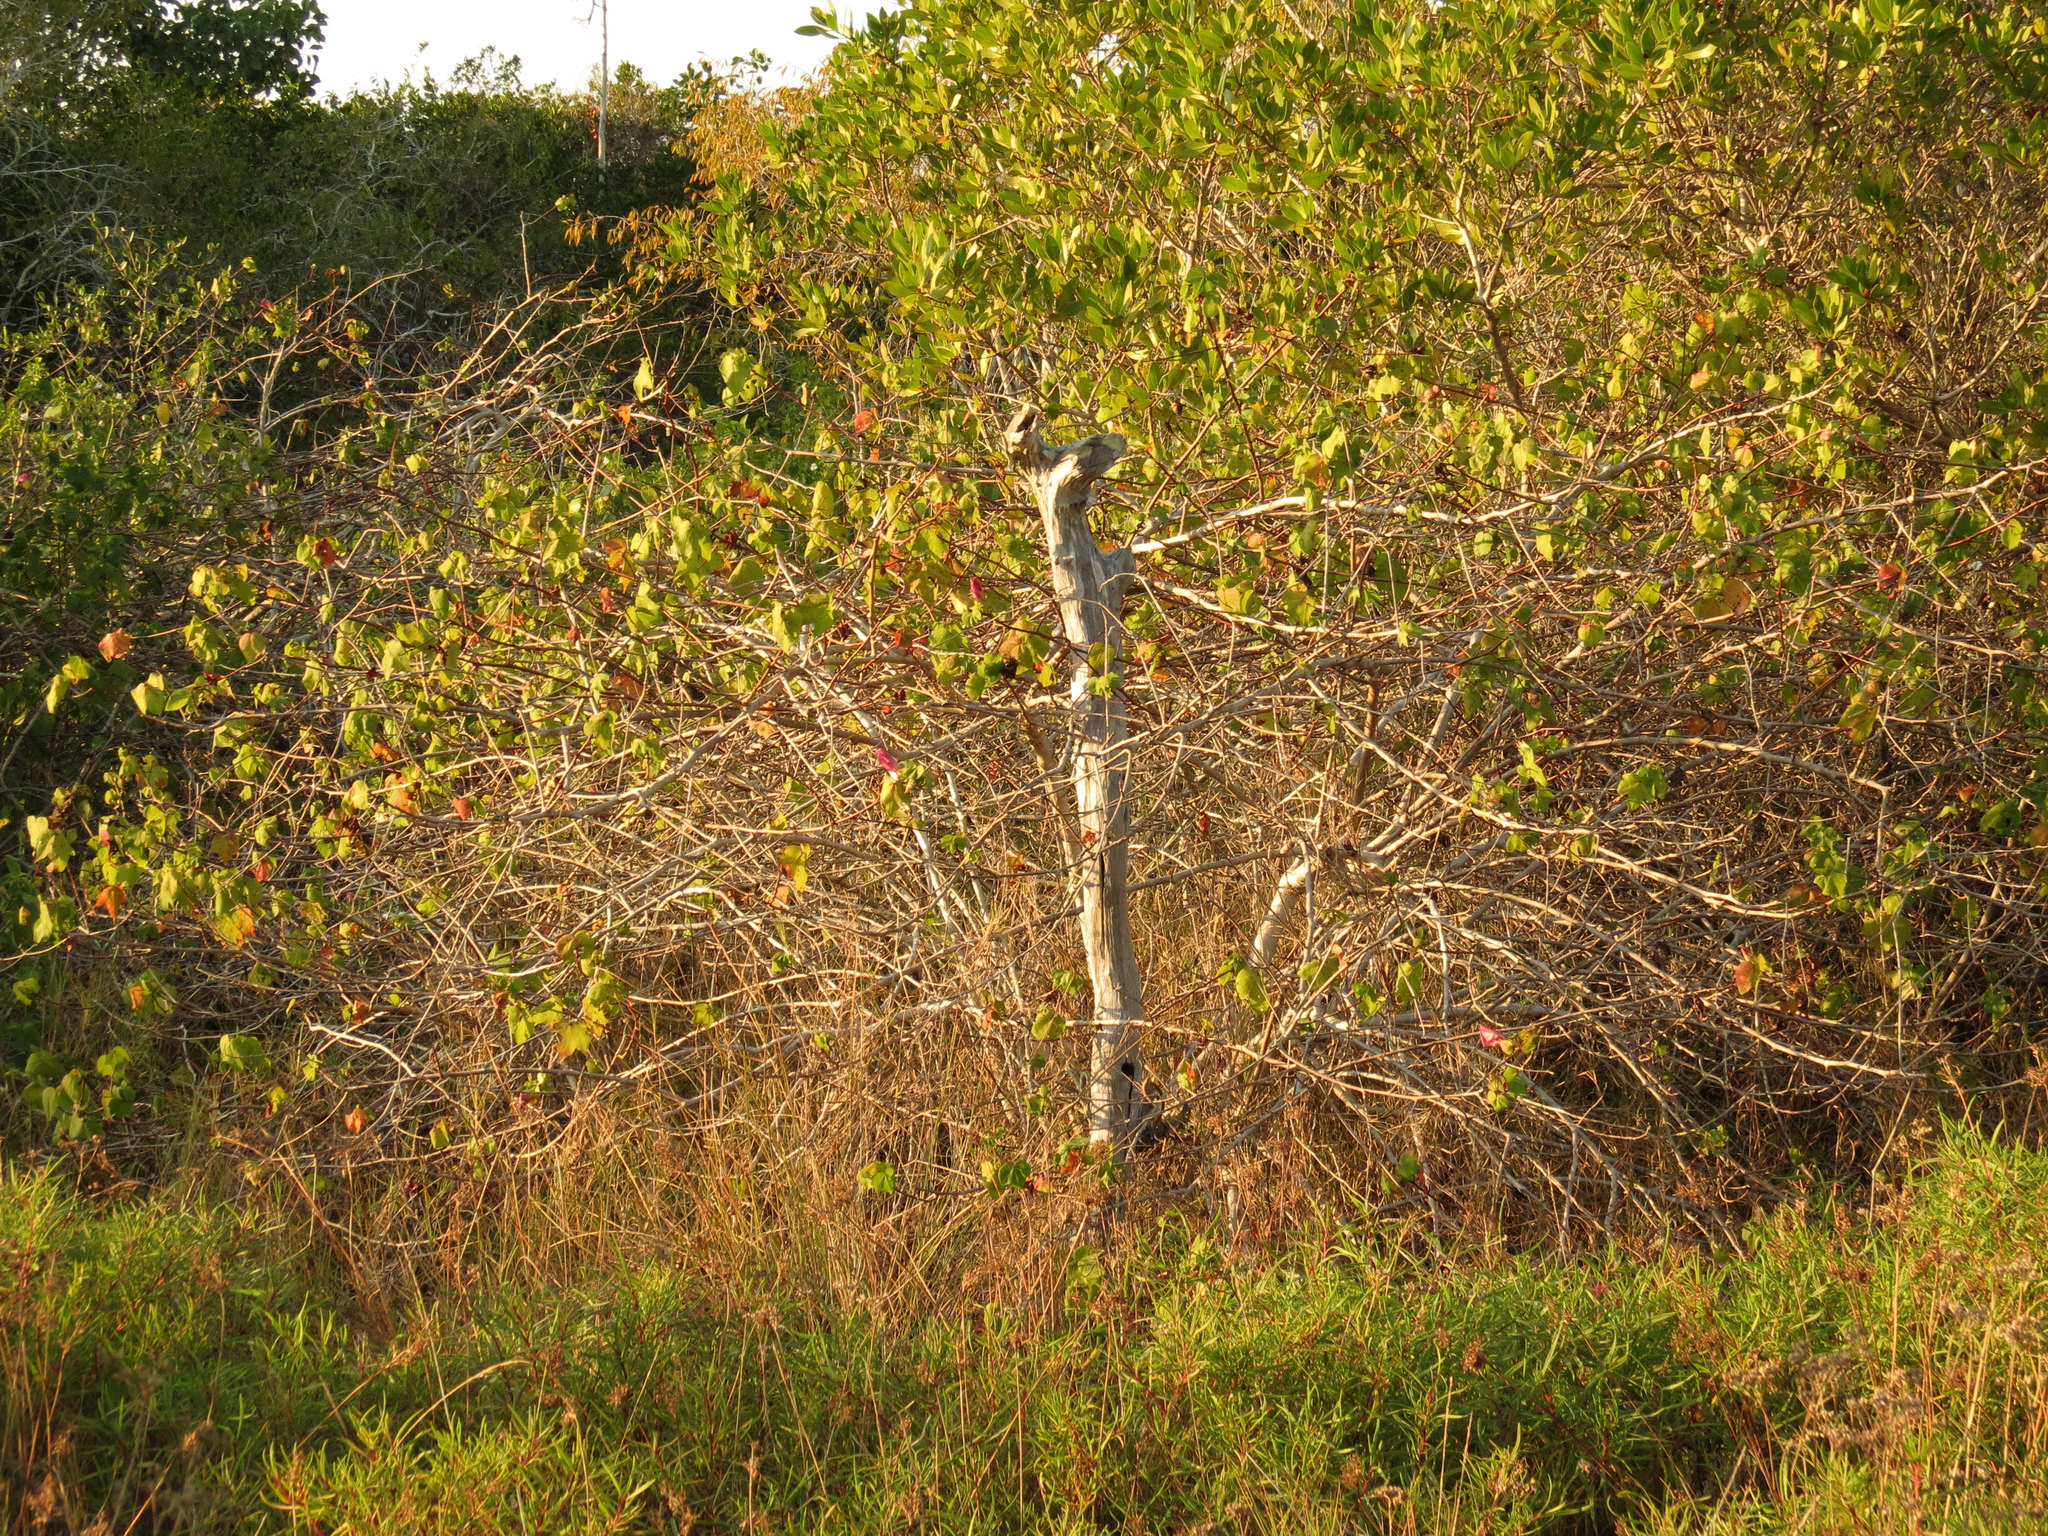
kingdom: Plantae
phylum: Tracheophyta
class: Magnoliopsida
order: Malvales
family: Malvaceae
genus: Gossypium
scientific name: Gossypium hirsutum
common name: Cotton
